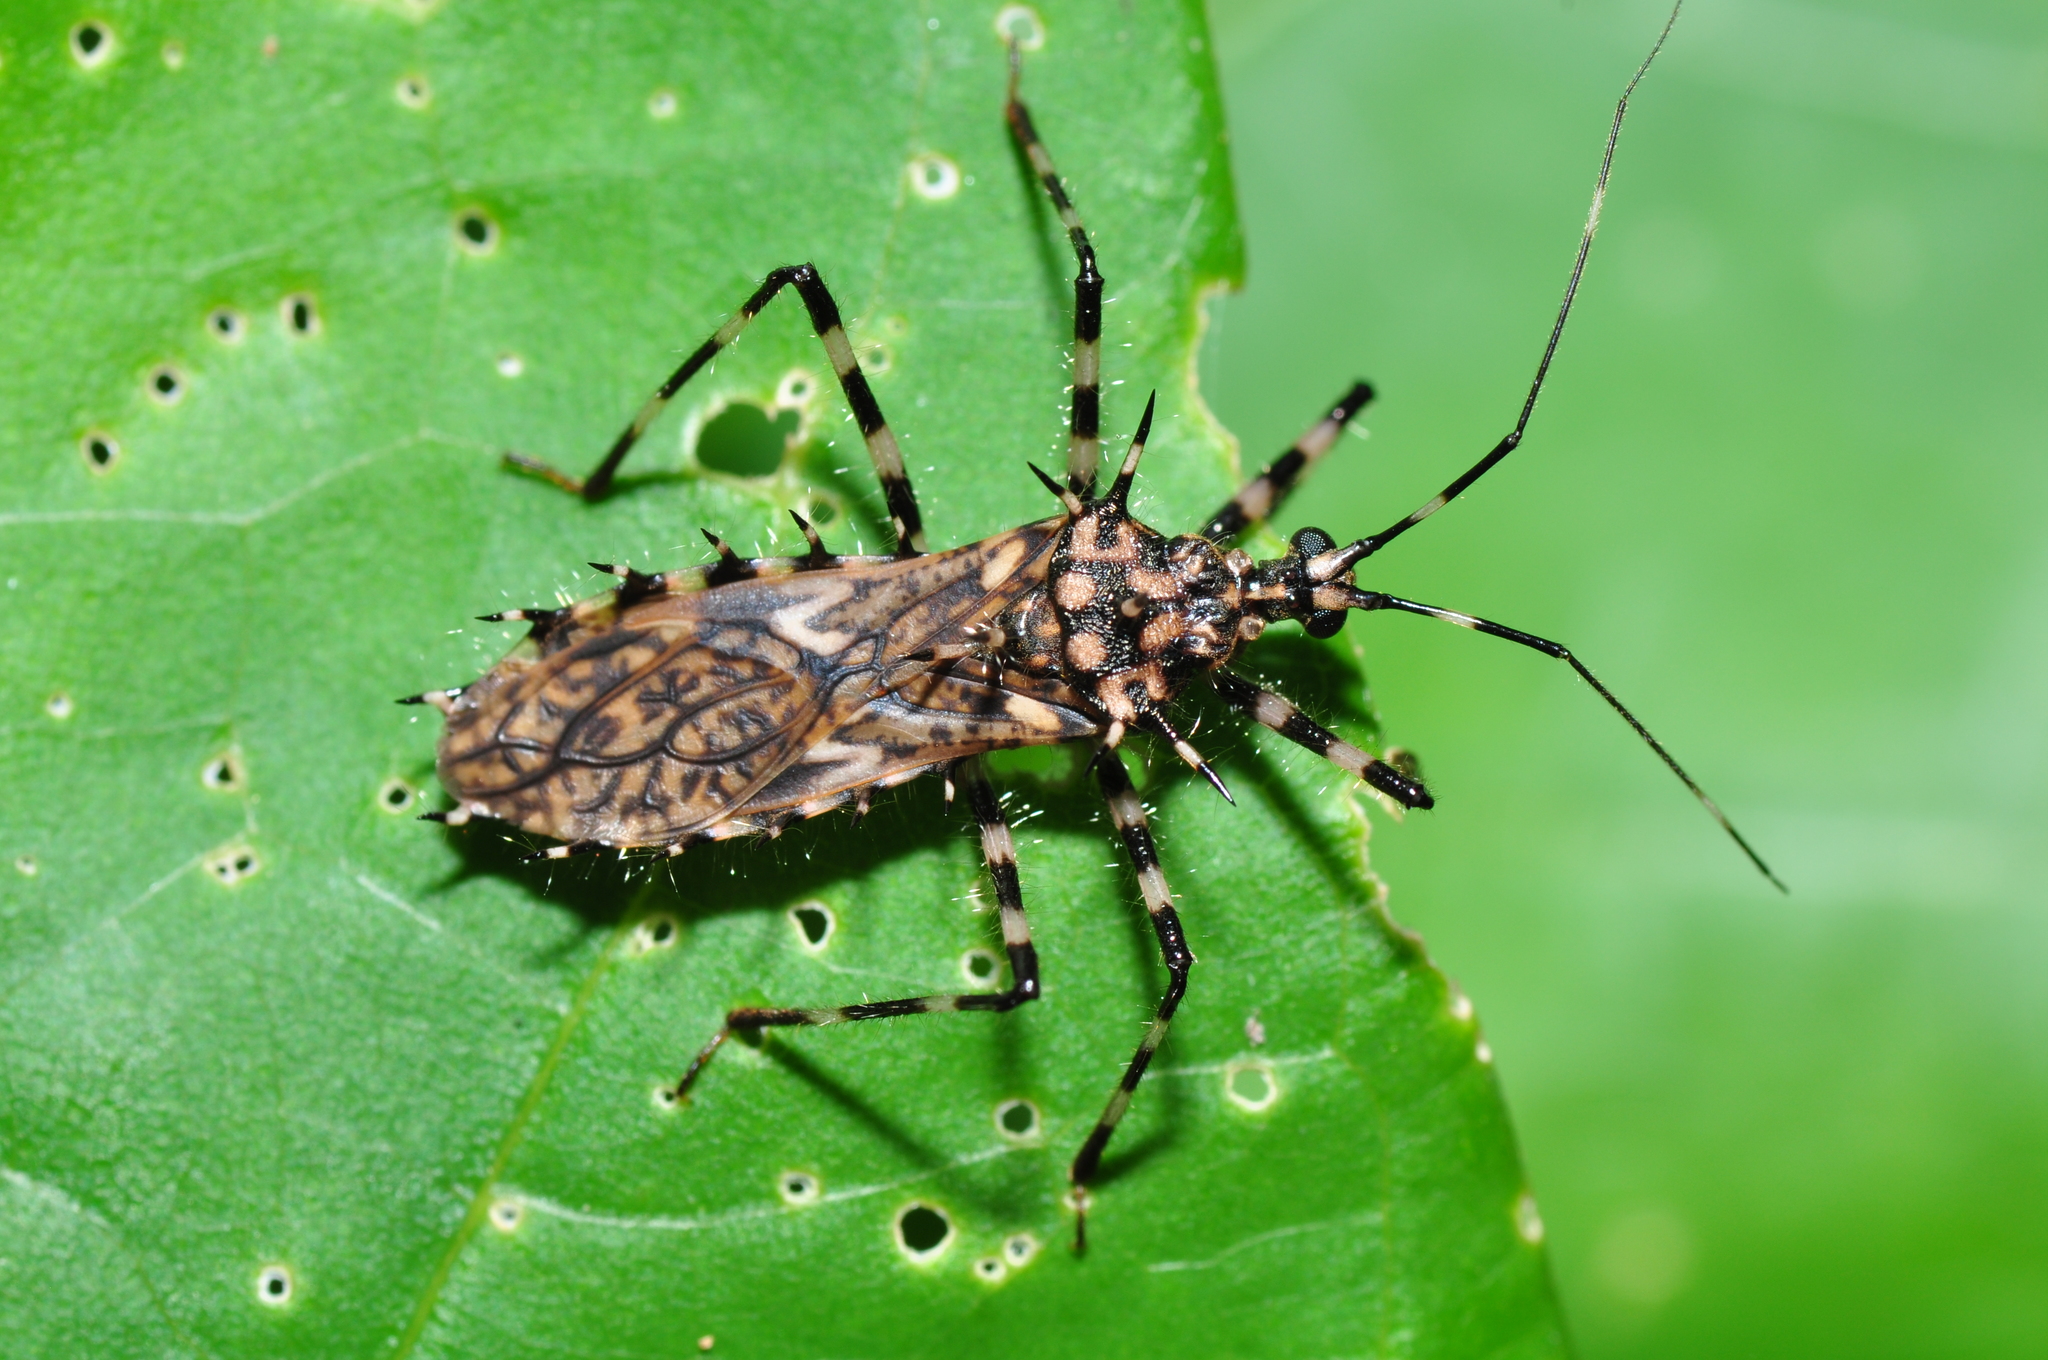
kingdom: Animalia
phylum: Arthropoda
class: Insecta
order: Hemiptera
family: Reduviidae
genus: Salyavata
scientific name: Salyavata macmahanae
